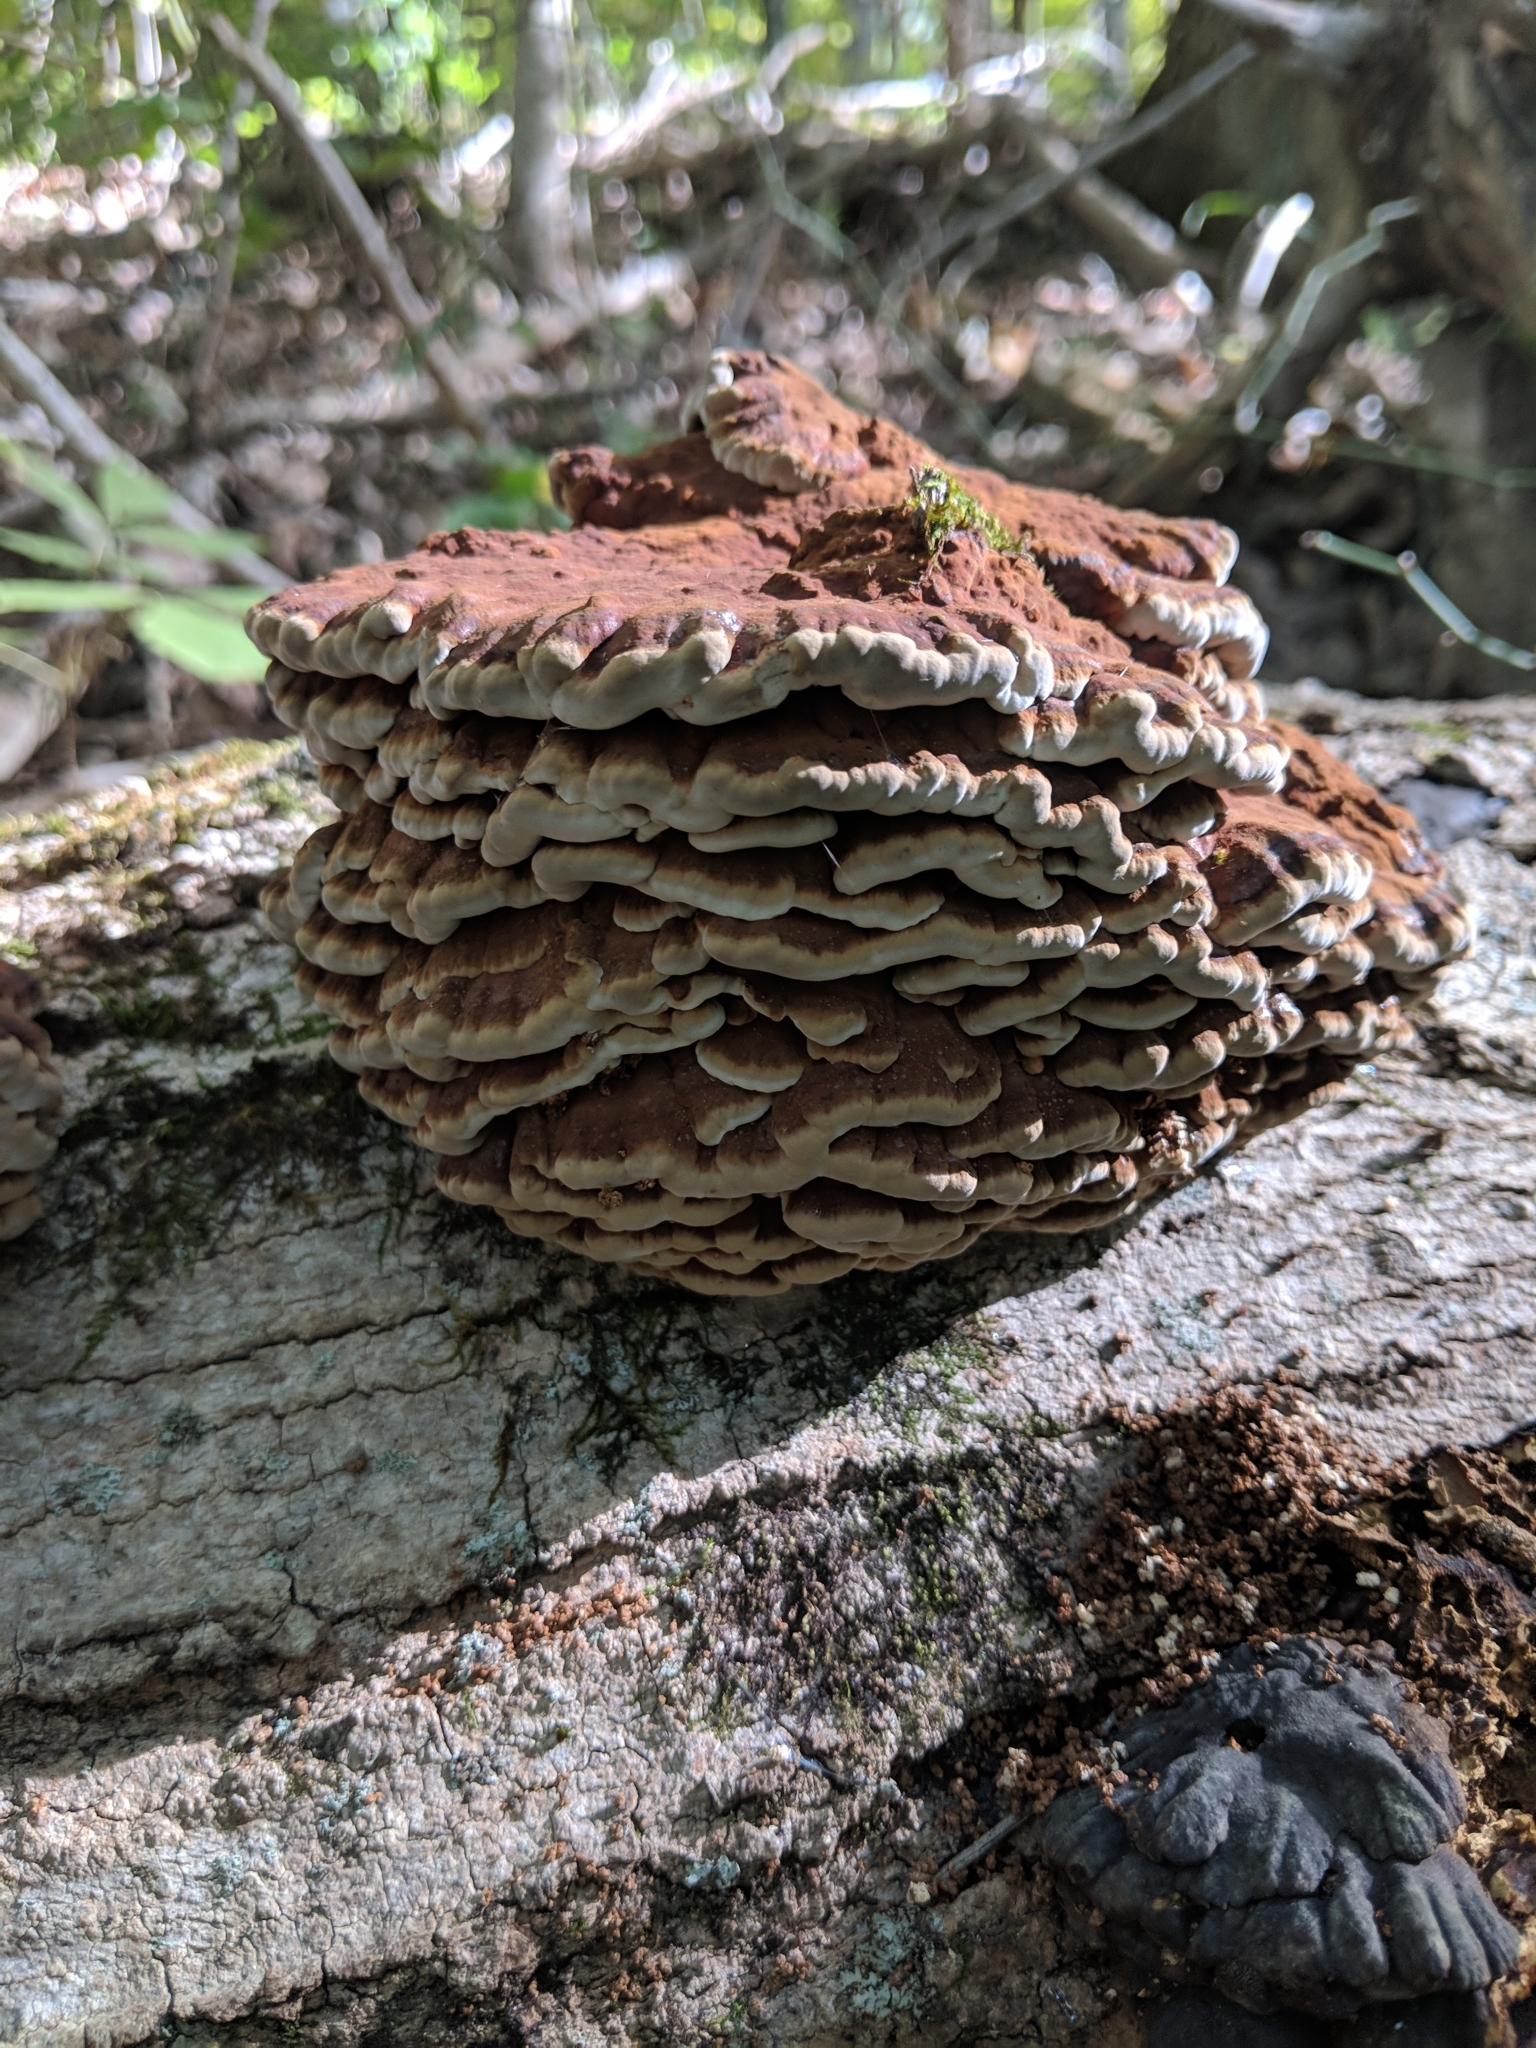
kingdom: Fungi
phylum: Basidiomycota
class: Agaricomycetes
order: Polyporales
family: Polyporaceae
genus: Globifomes
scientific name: Globifomes graveolens
